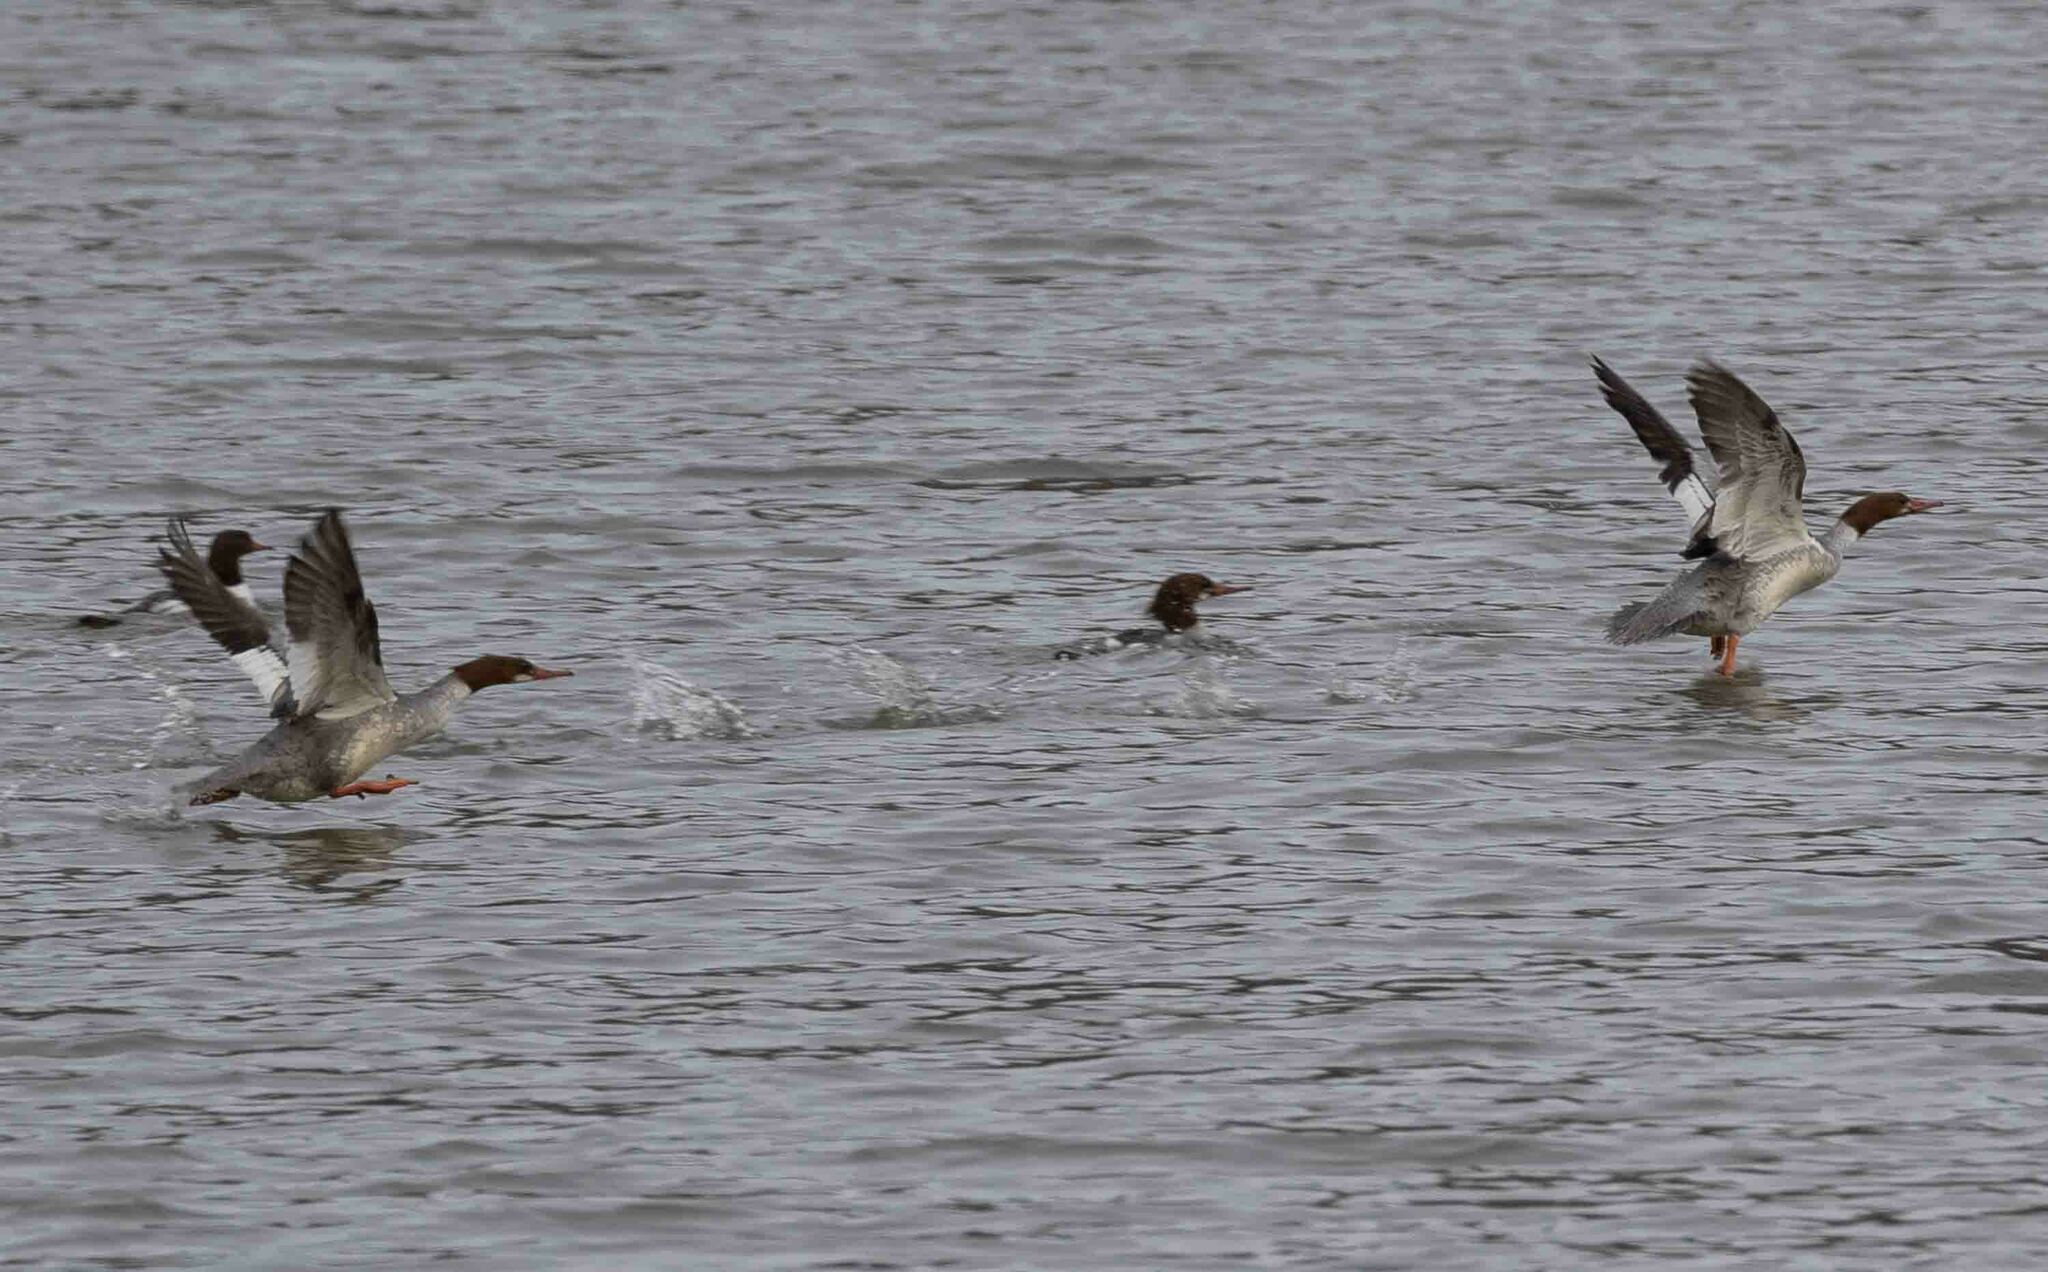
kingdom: Animalia
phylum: Chordata
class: Aves
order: Anseriformes
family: Anatidae
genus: Mergus
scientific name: Mergus merganser
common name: Common merganser
